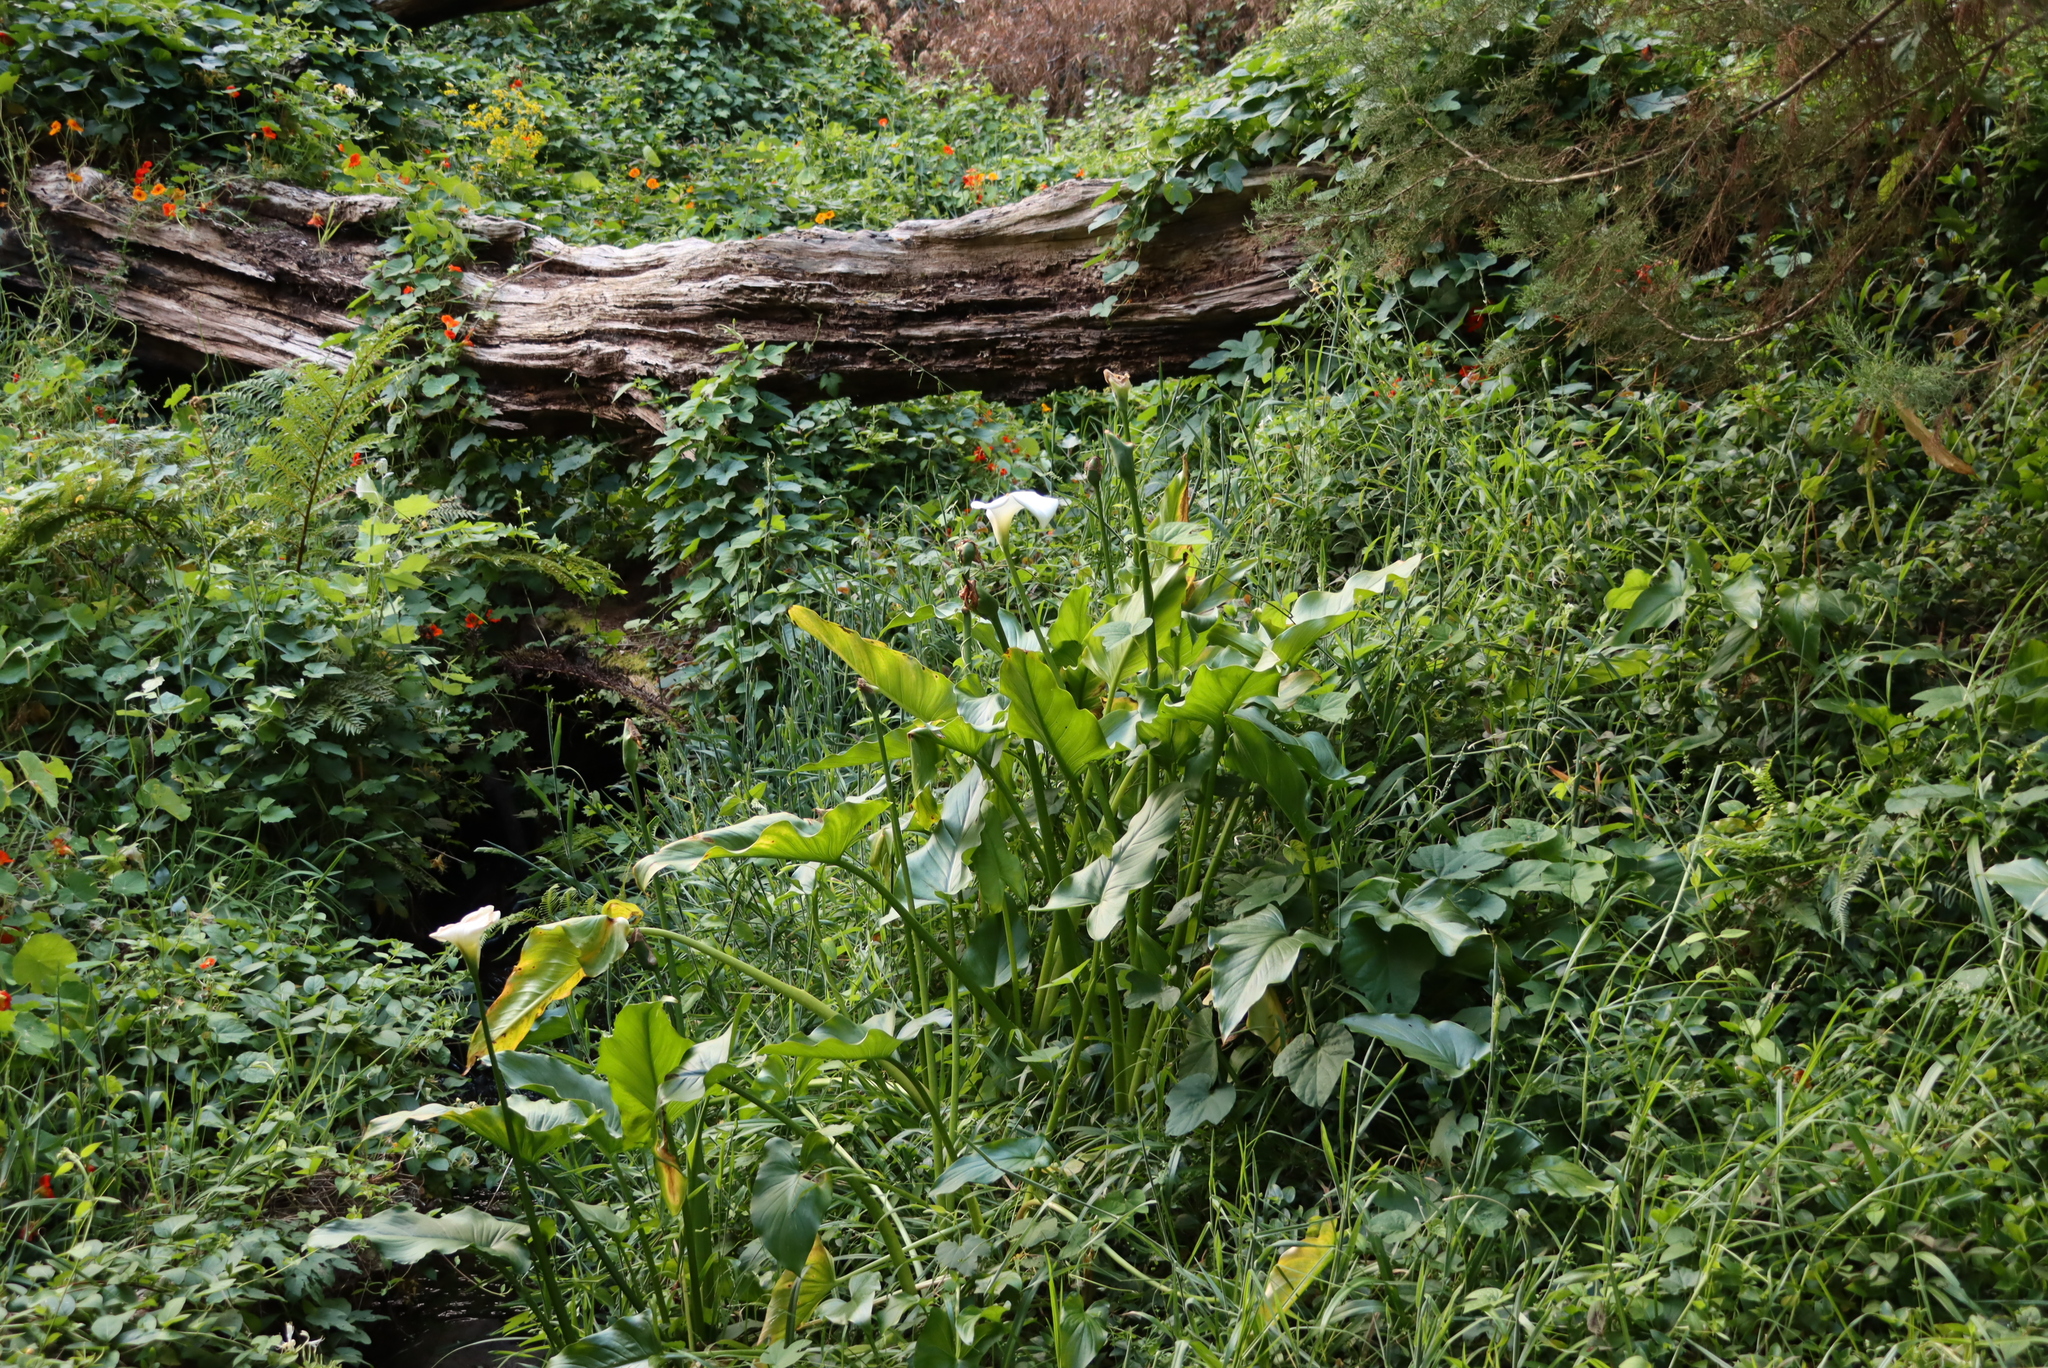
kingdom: Plantae
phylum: Tracheophyta
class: Liliopsida
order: Alismatales
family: Araceae
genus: Zantedeschia
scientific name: Zantedeschia aethiopica
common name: Altar-lily
